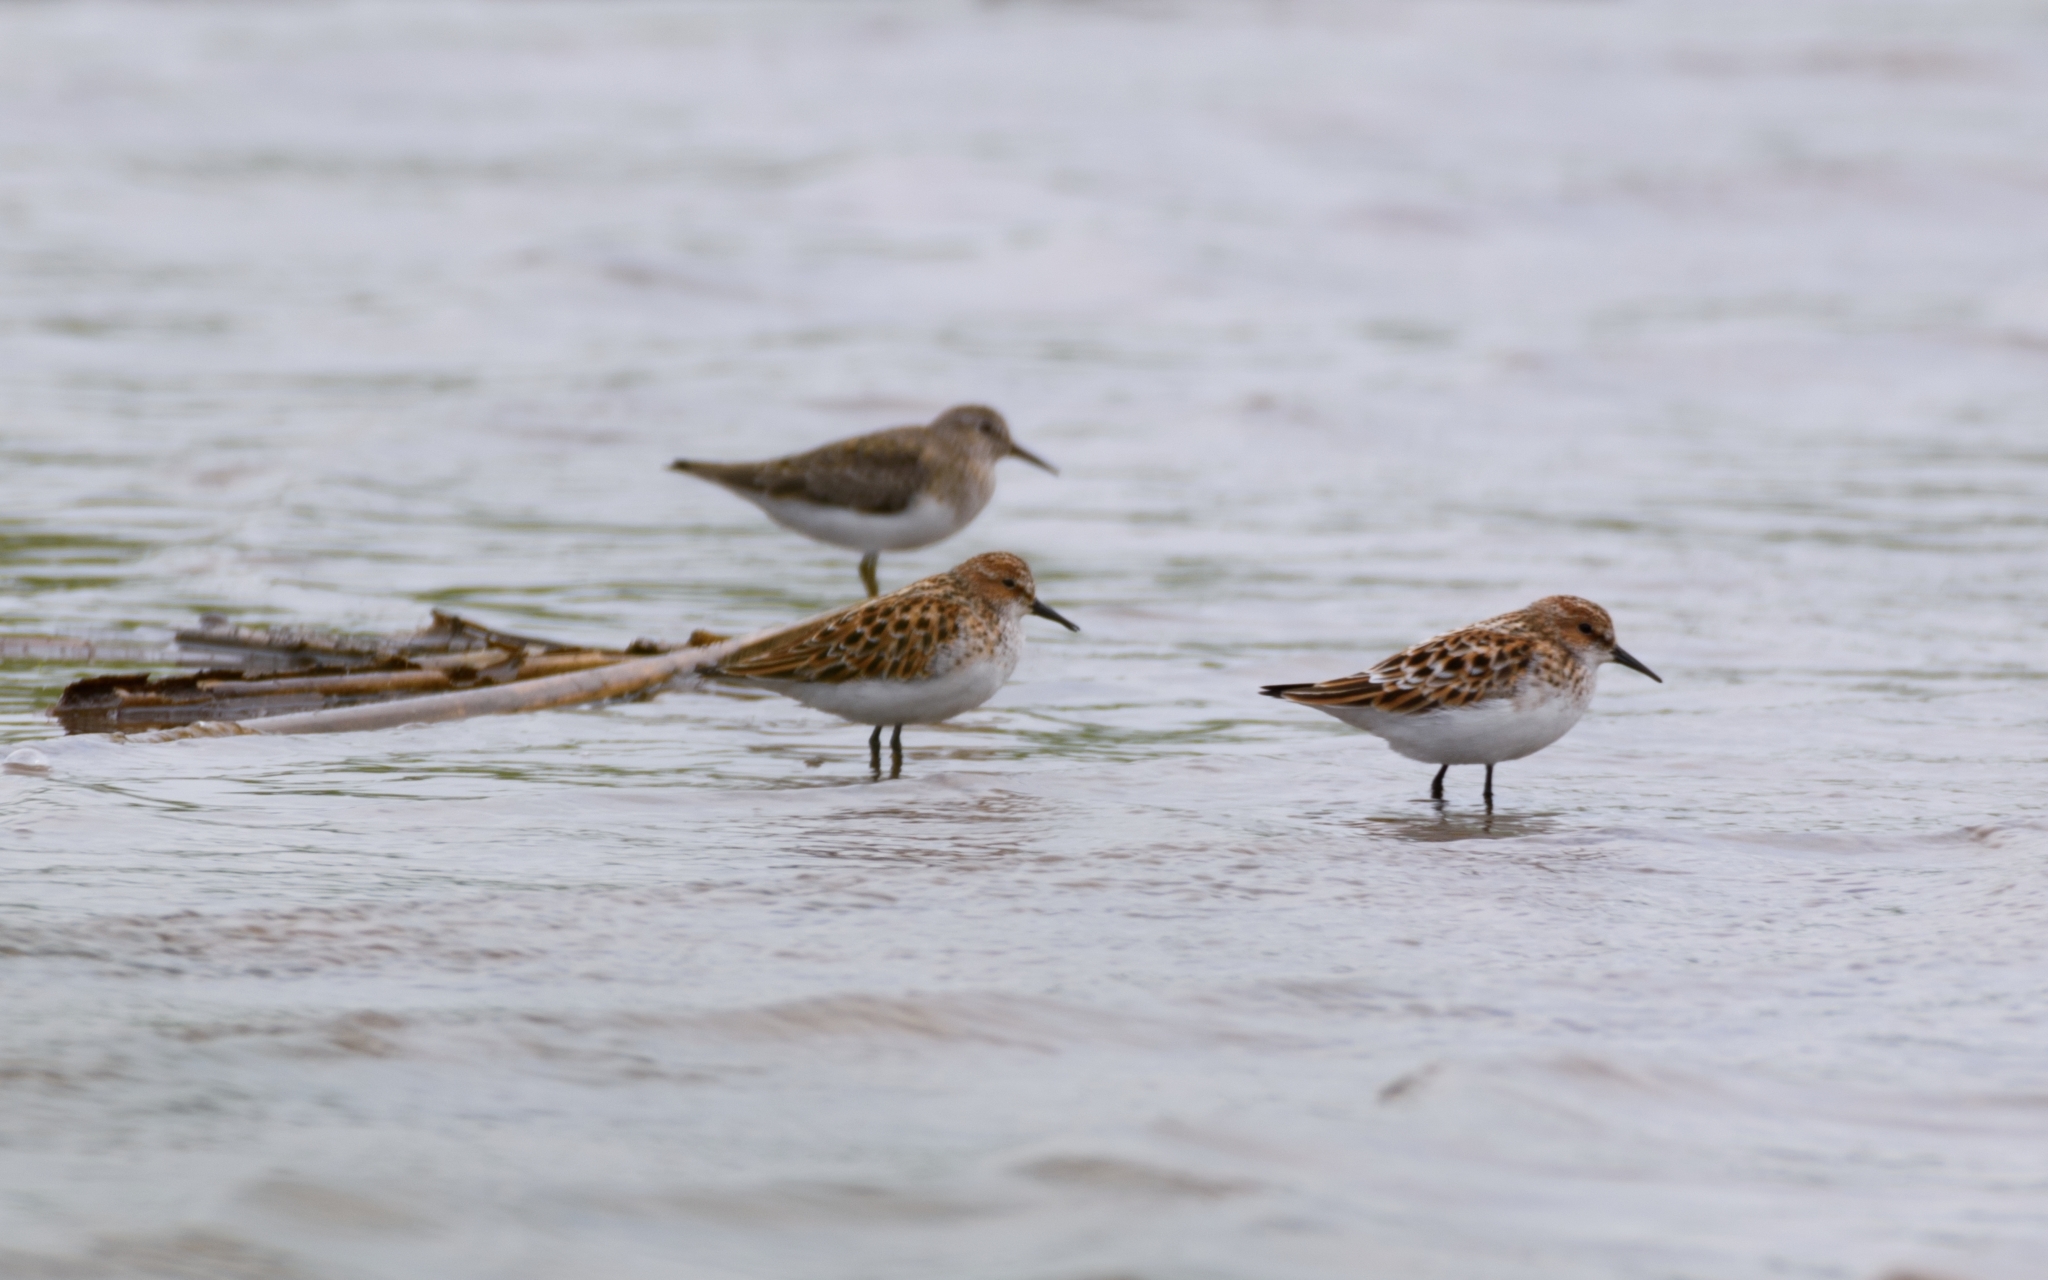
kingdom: Animalia
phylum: Chordata
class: Aves
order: Charadriiformes
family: Scolopacidae
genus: Calidris
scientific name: Calidris minuta
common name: Little stint
